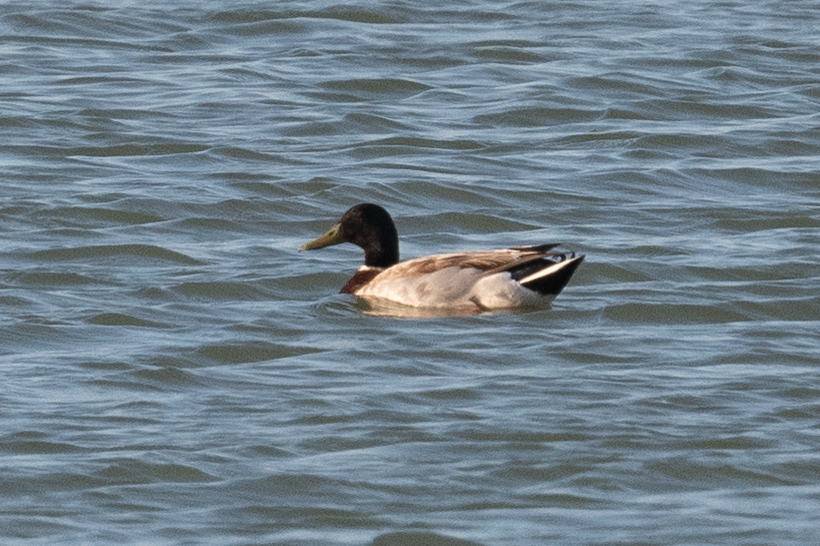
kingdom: Animalia
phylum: Chordata
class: Aves
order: Anseriformes
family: Anatidae
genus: Anas
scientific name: Anas platyrhynchos
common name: Mallard
